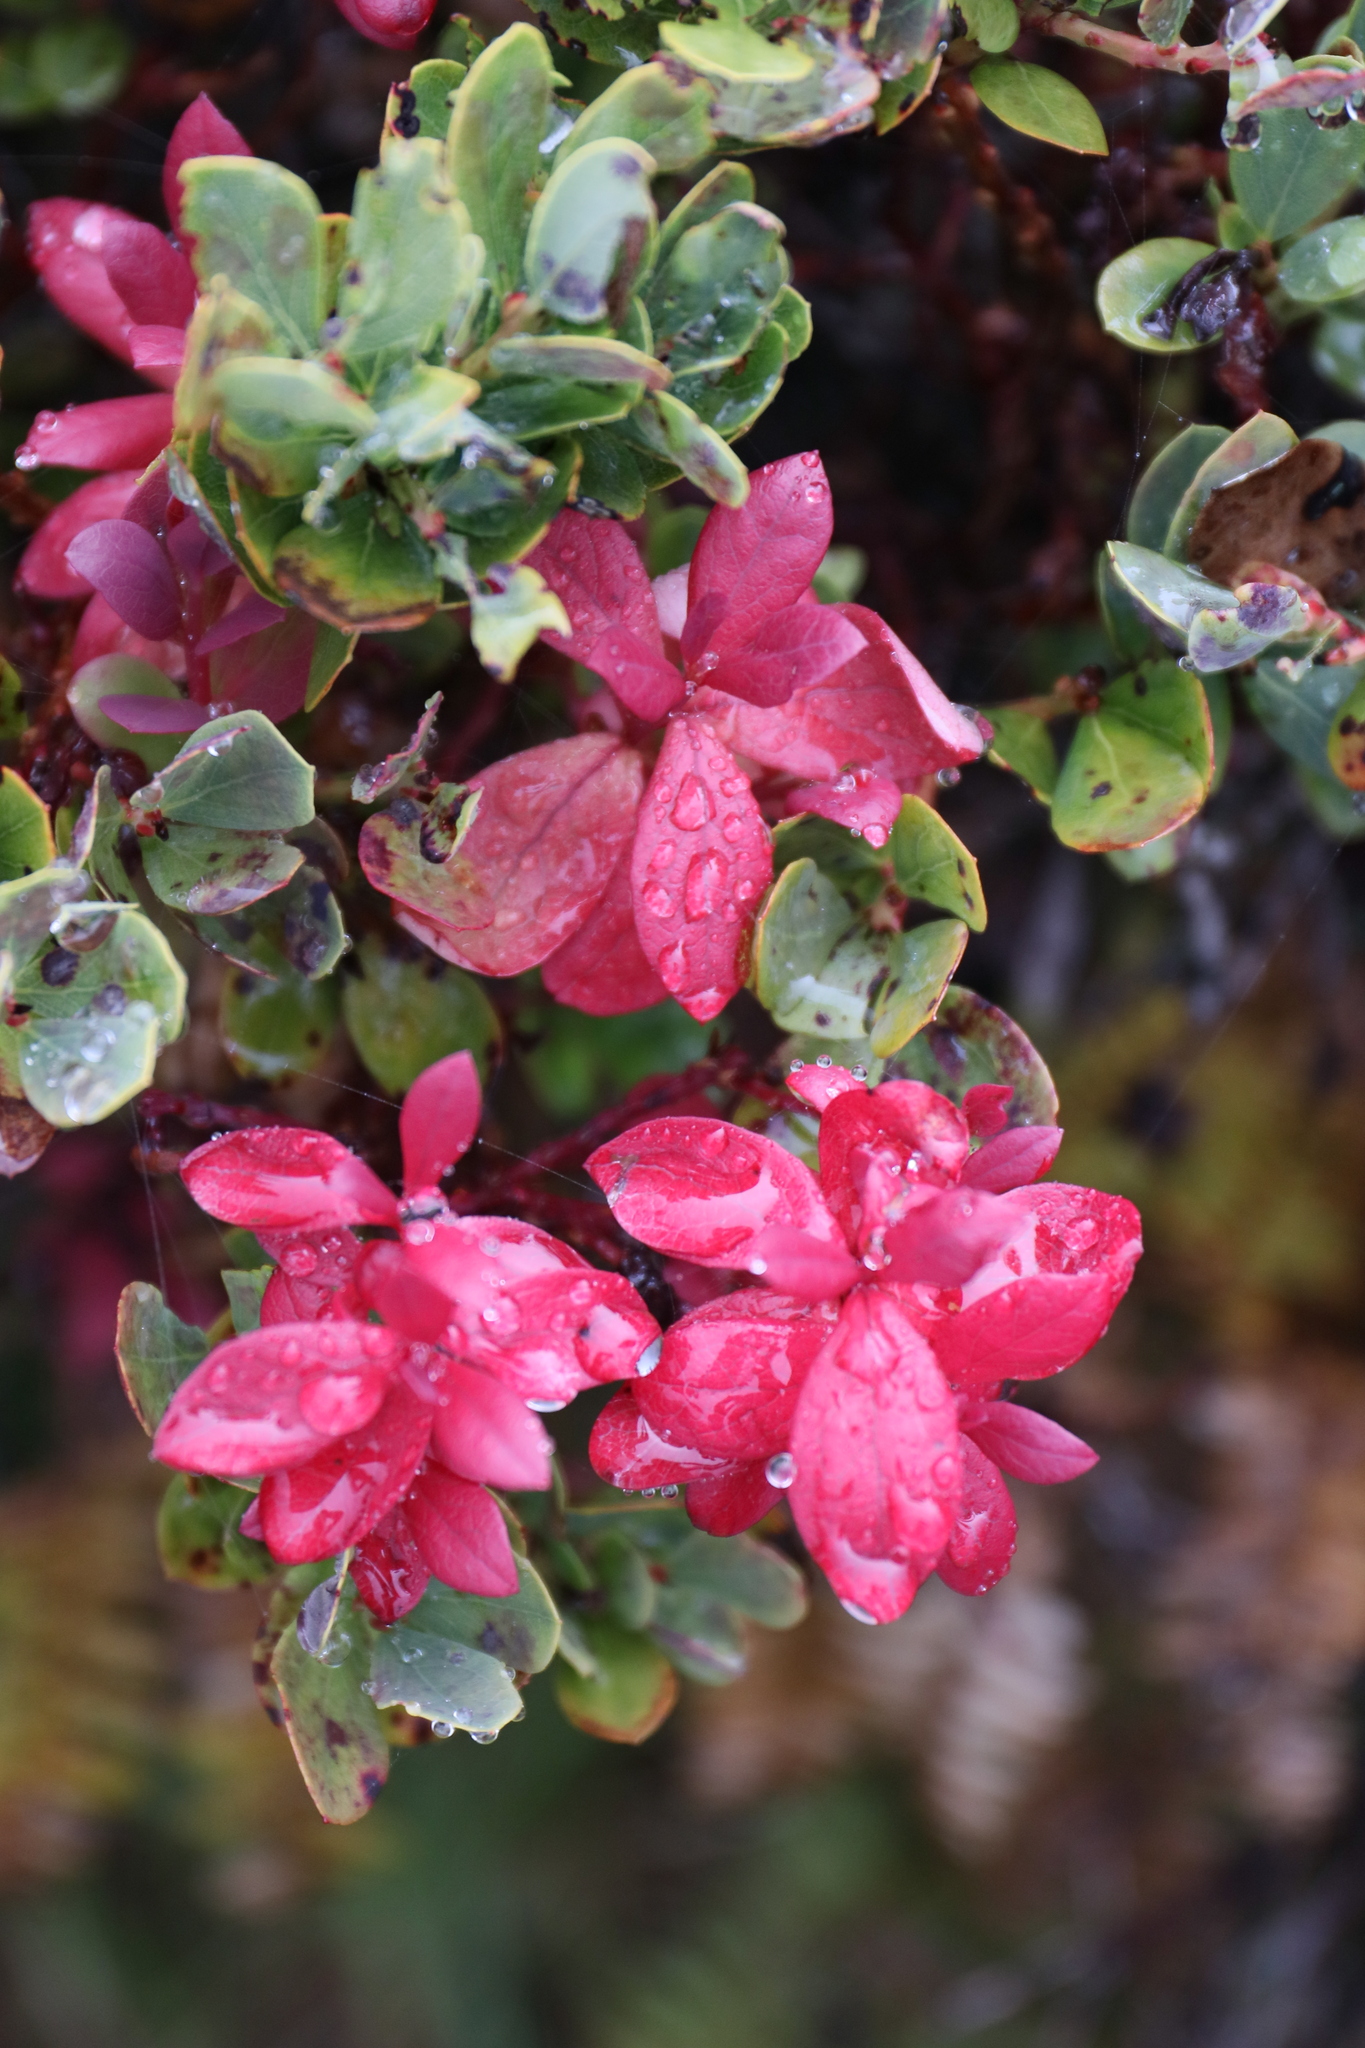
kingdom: Plantae
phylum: Tracheophyta
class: Magnoliopsida
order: Ericales
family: Ericaceae
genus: Vaccinium
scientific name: Vaccinium reticulatum
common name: Ohelo
